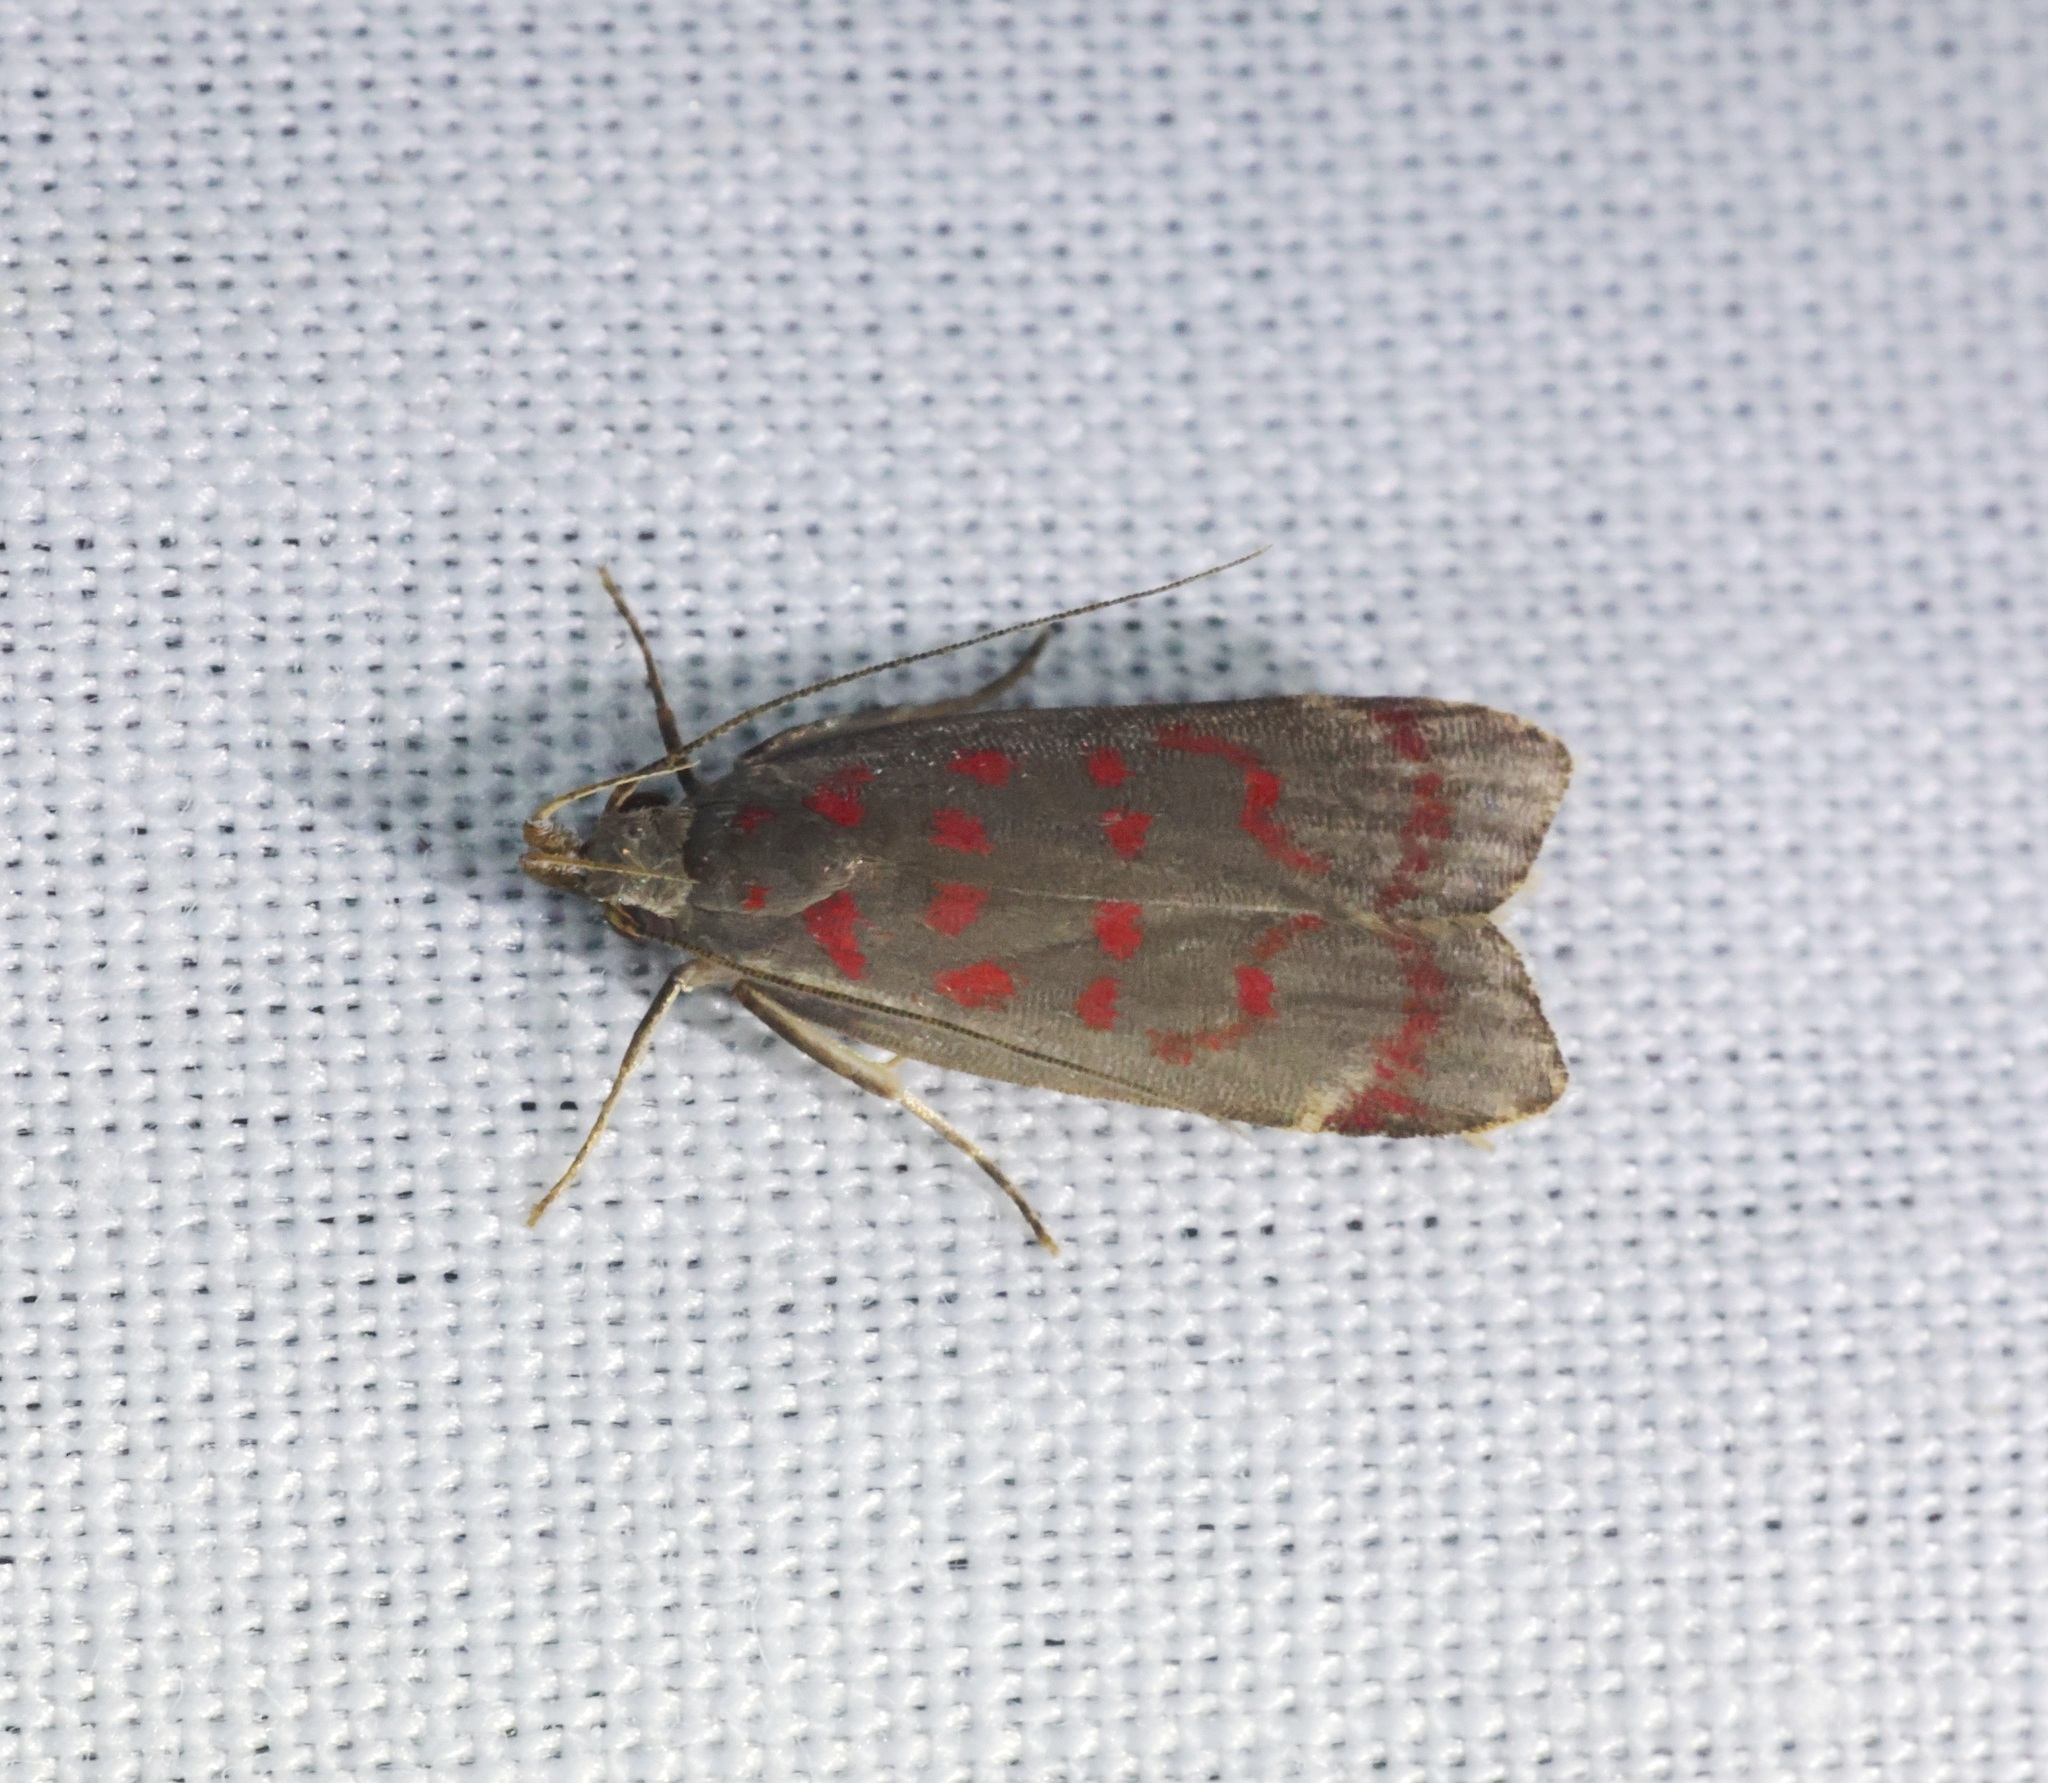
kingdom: Animalia
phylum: Arthropoda
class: Insecta
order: Lepidoptera
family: Gelechiidae
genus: Dichomeris
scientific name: Dichomeris sandycitis
